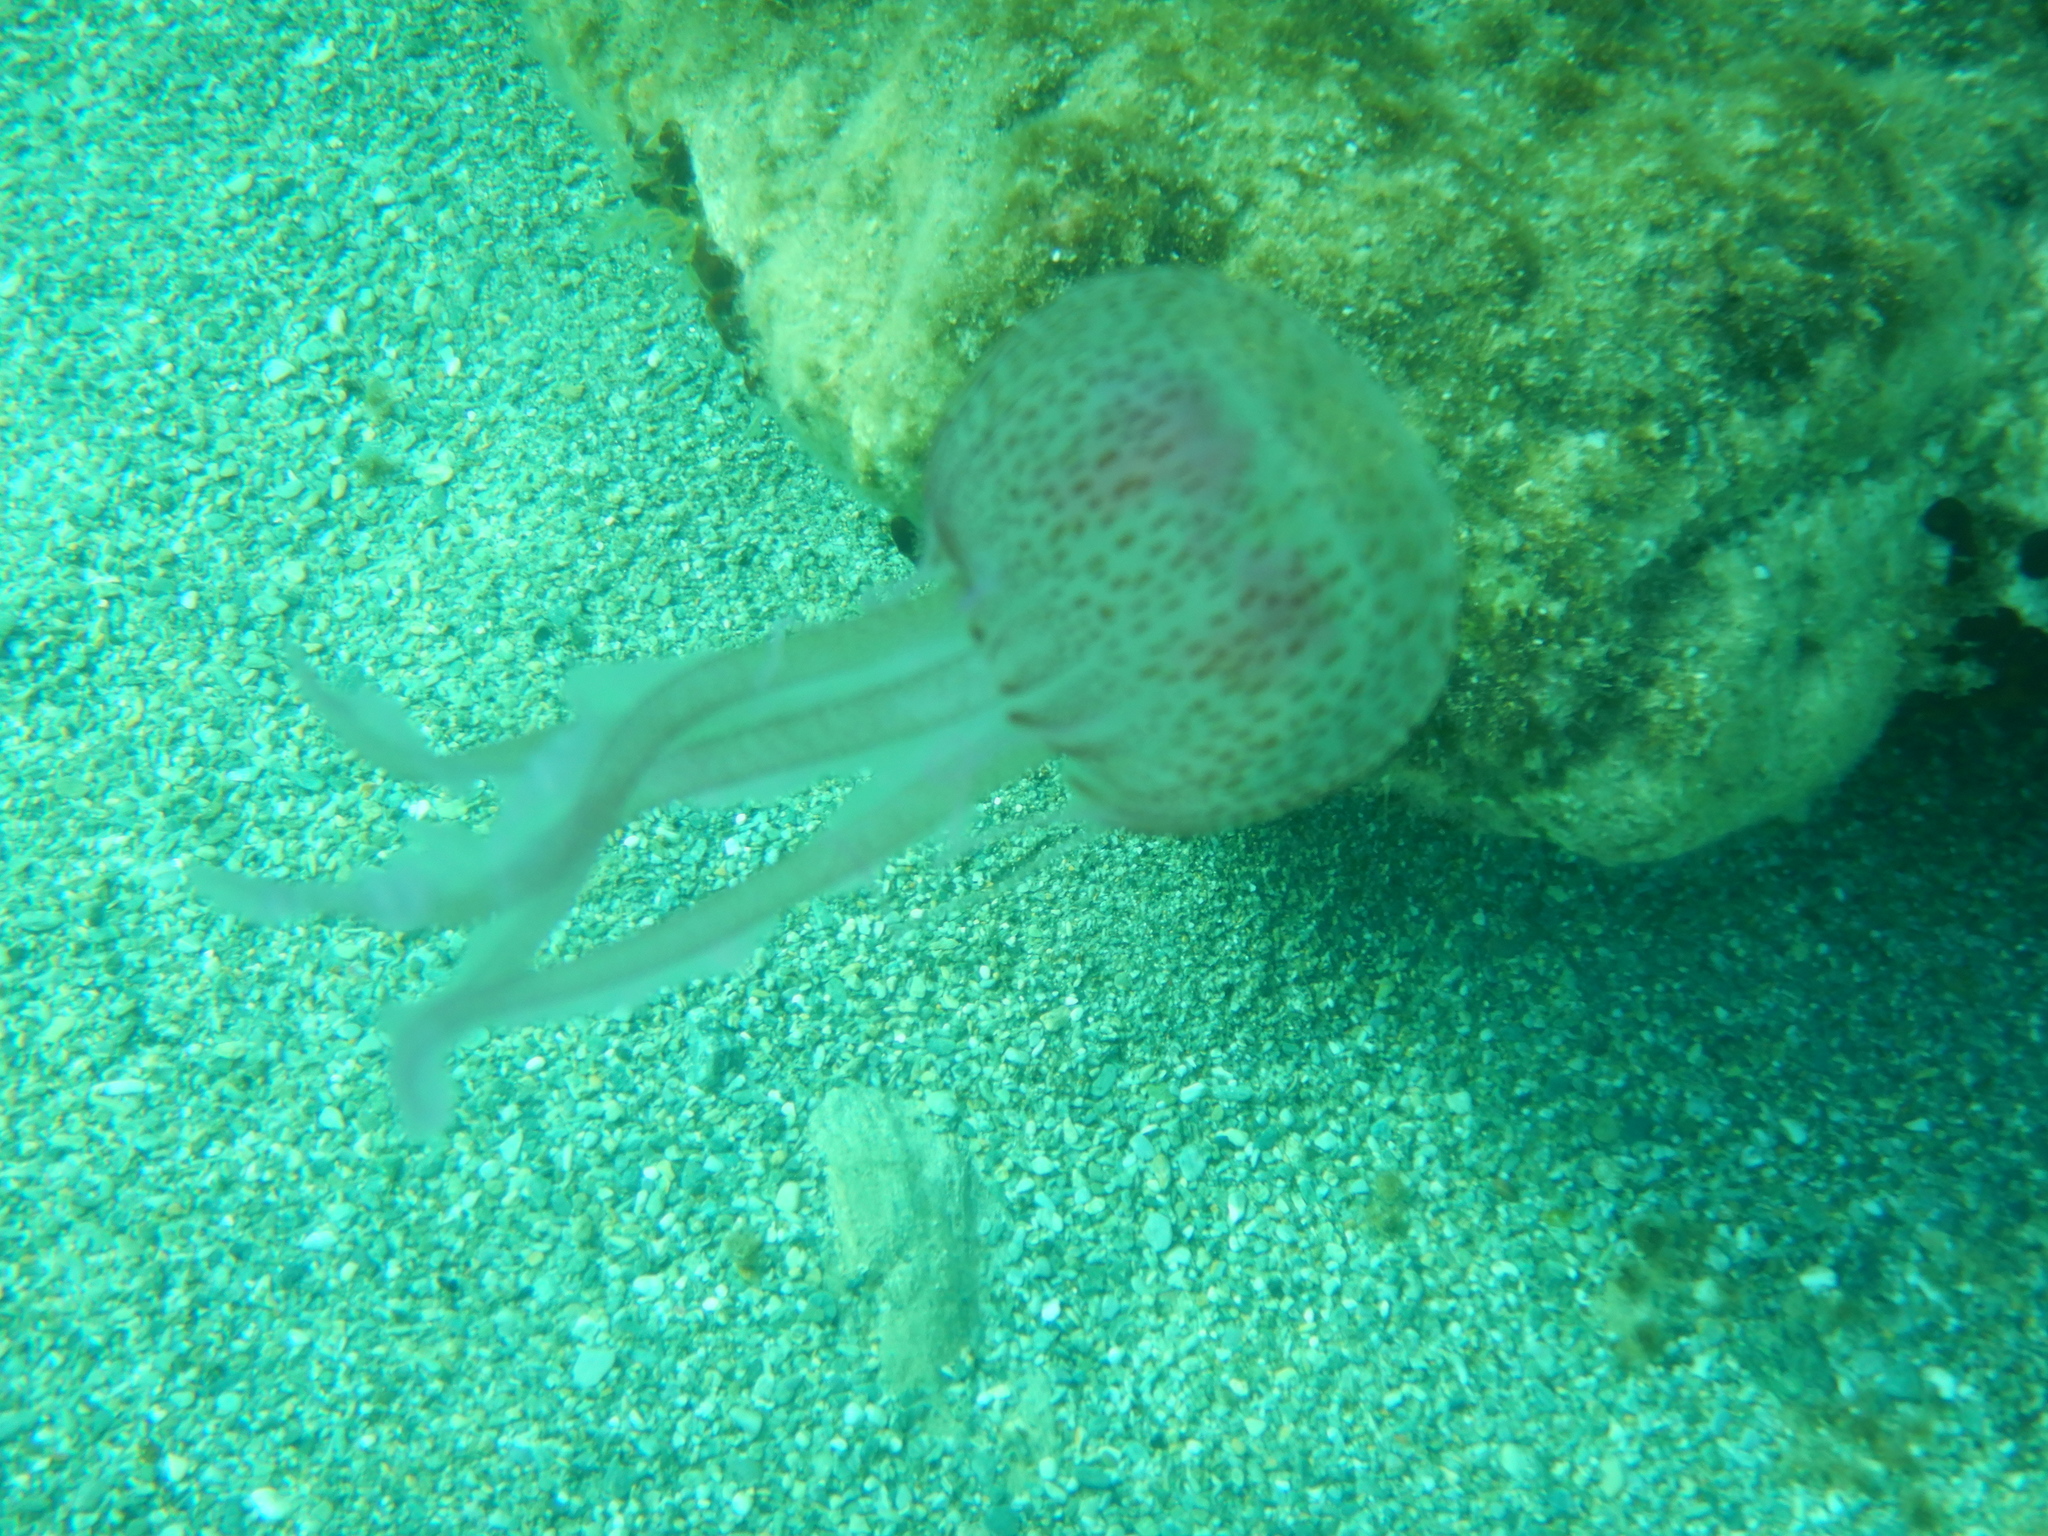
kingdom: Animalia
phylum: Cnidaria
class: Scyphozoa
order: Semaeostomeae
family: Pelagiidae
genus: Pelagia
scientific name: Pelagia noctiluca
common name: Mauve stinger
